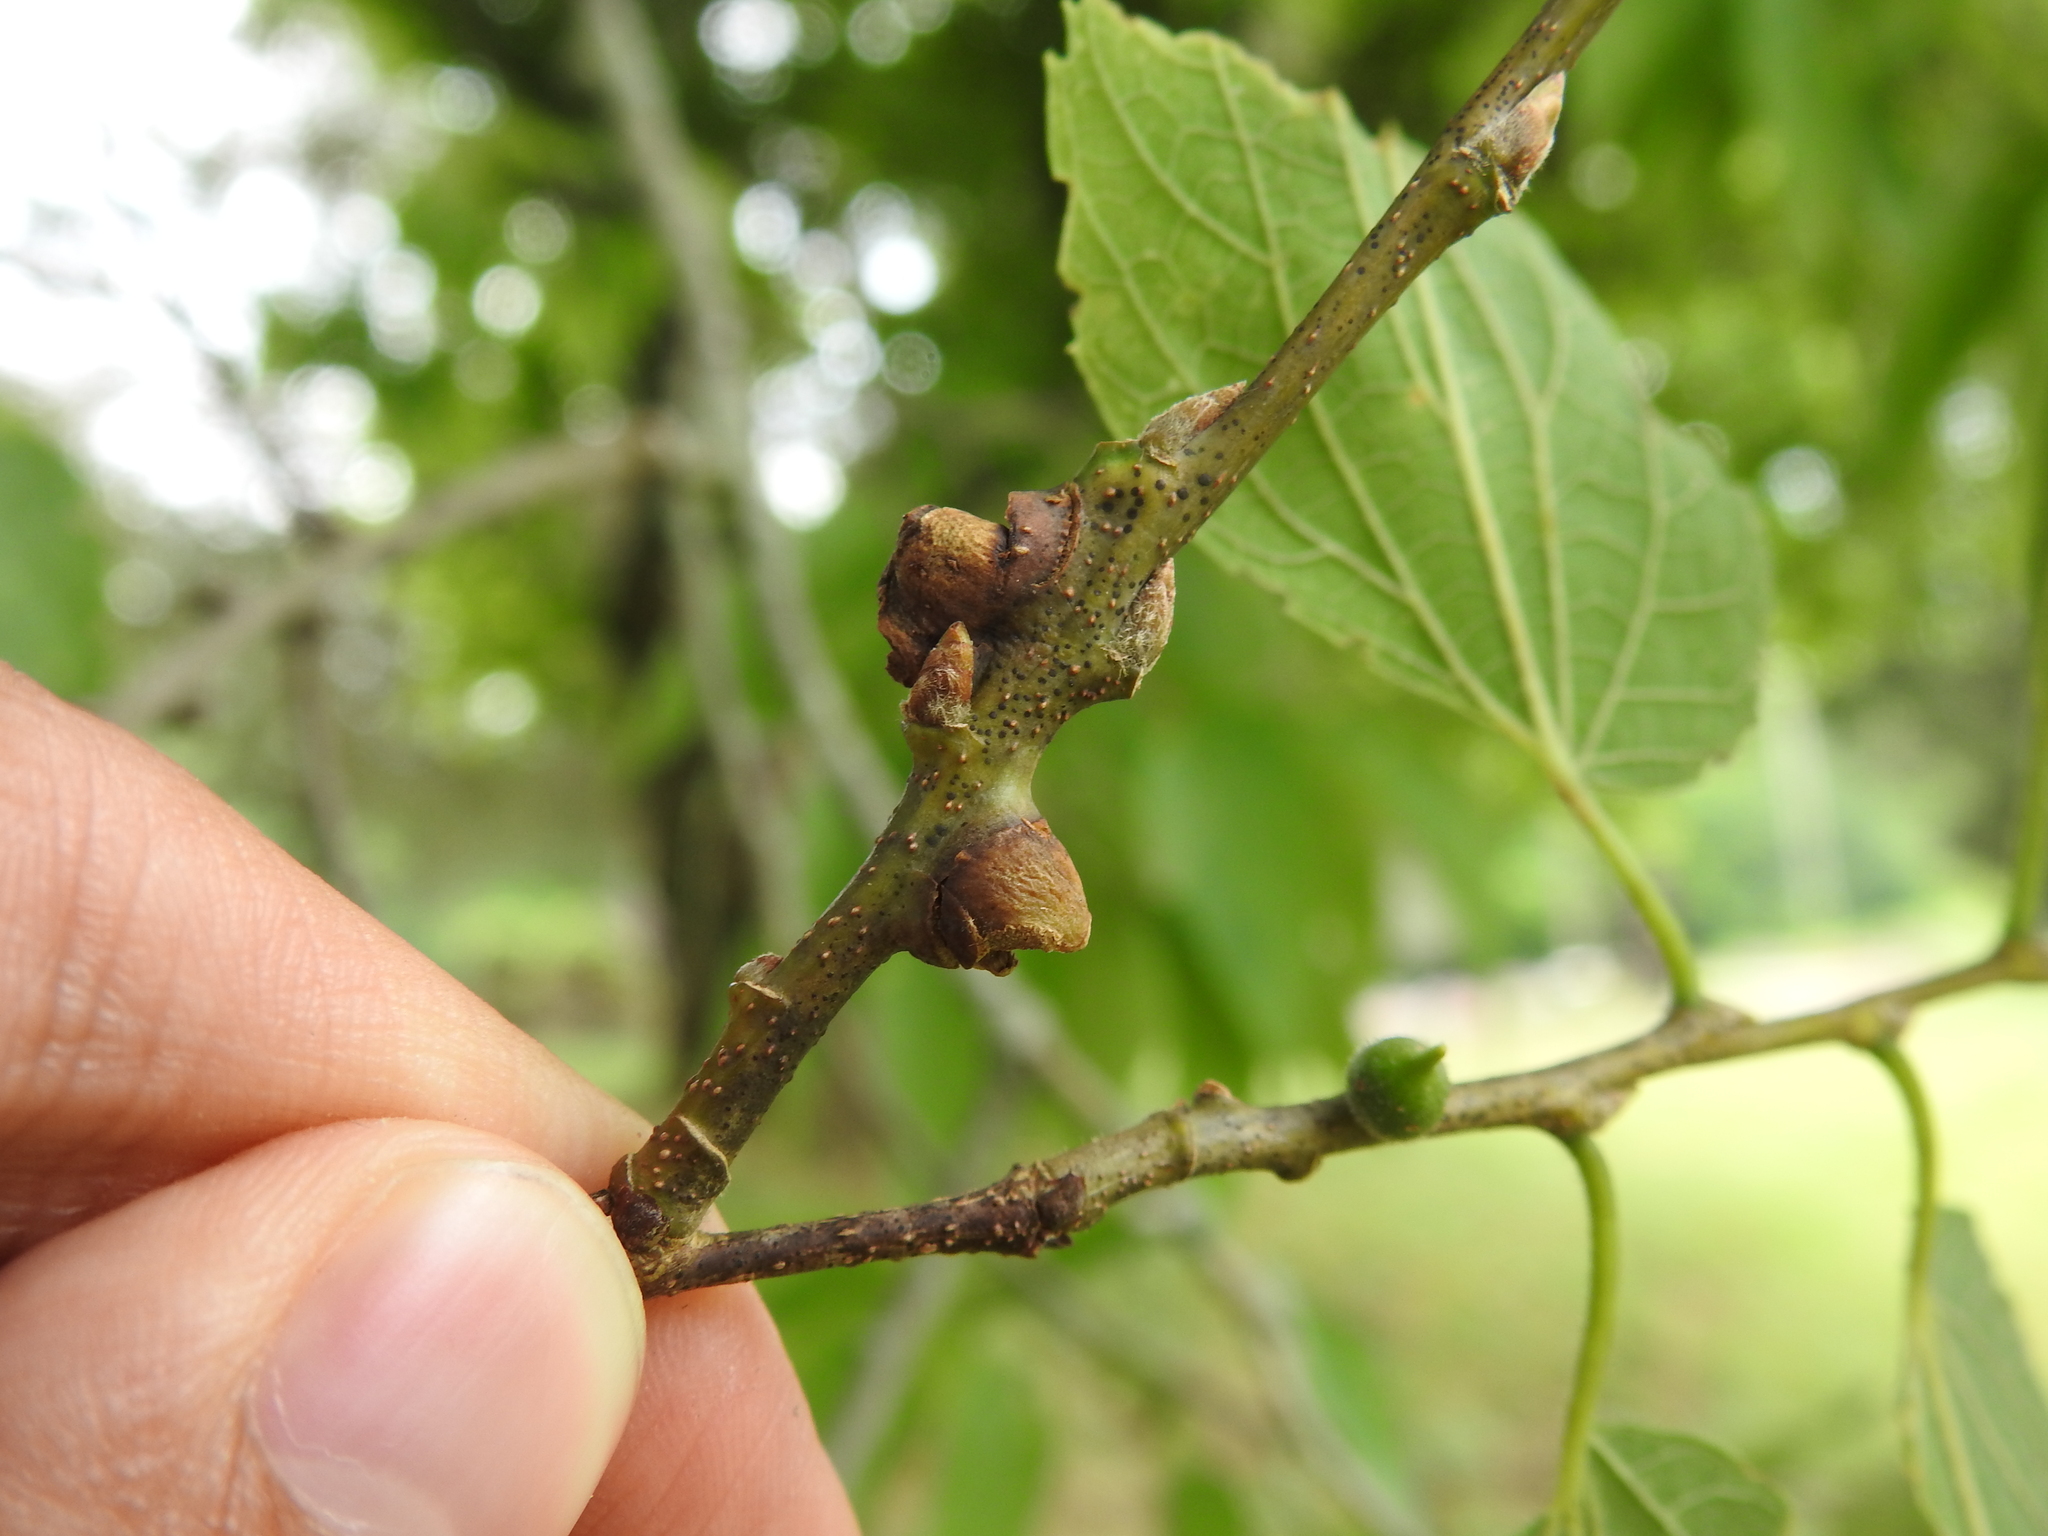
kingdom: Animalia
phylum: Arthropoda
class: Insecta
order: Diptera
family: Cecidomyiidae
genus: Celticecis
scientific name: Celticecis expulsa
